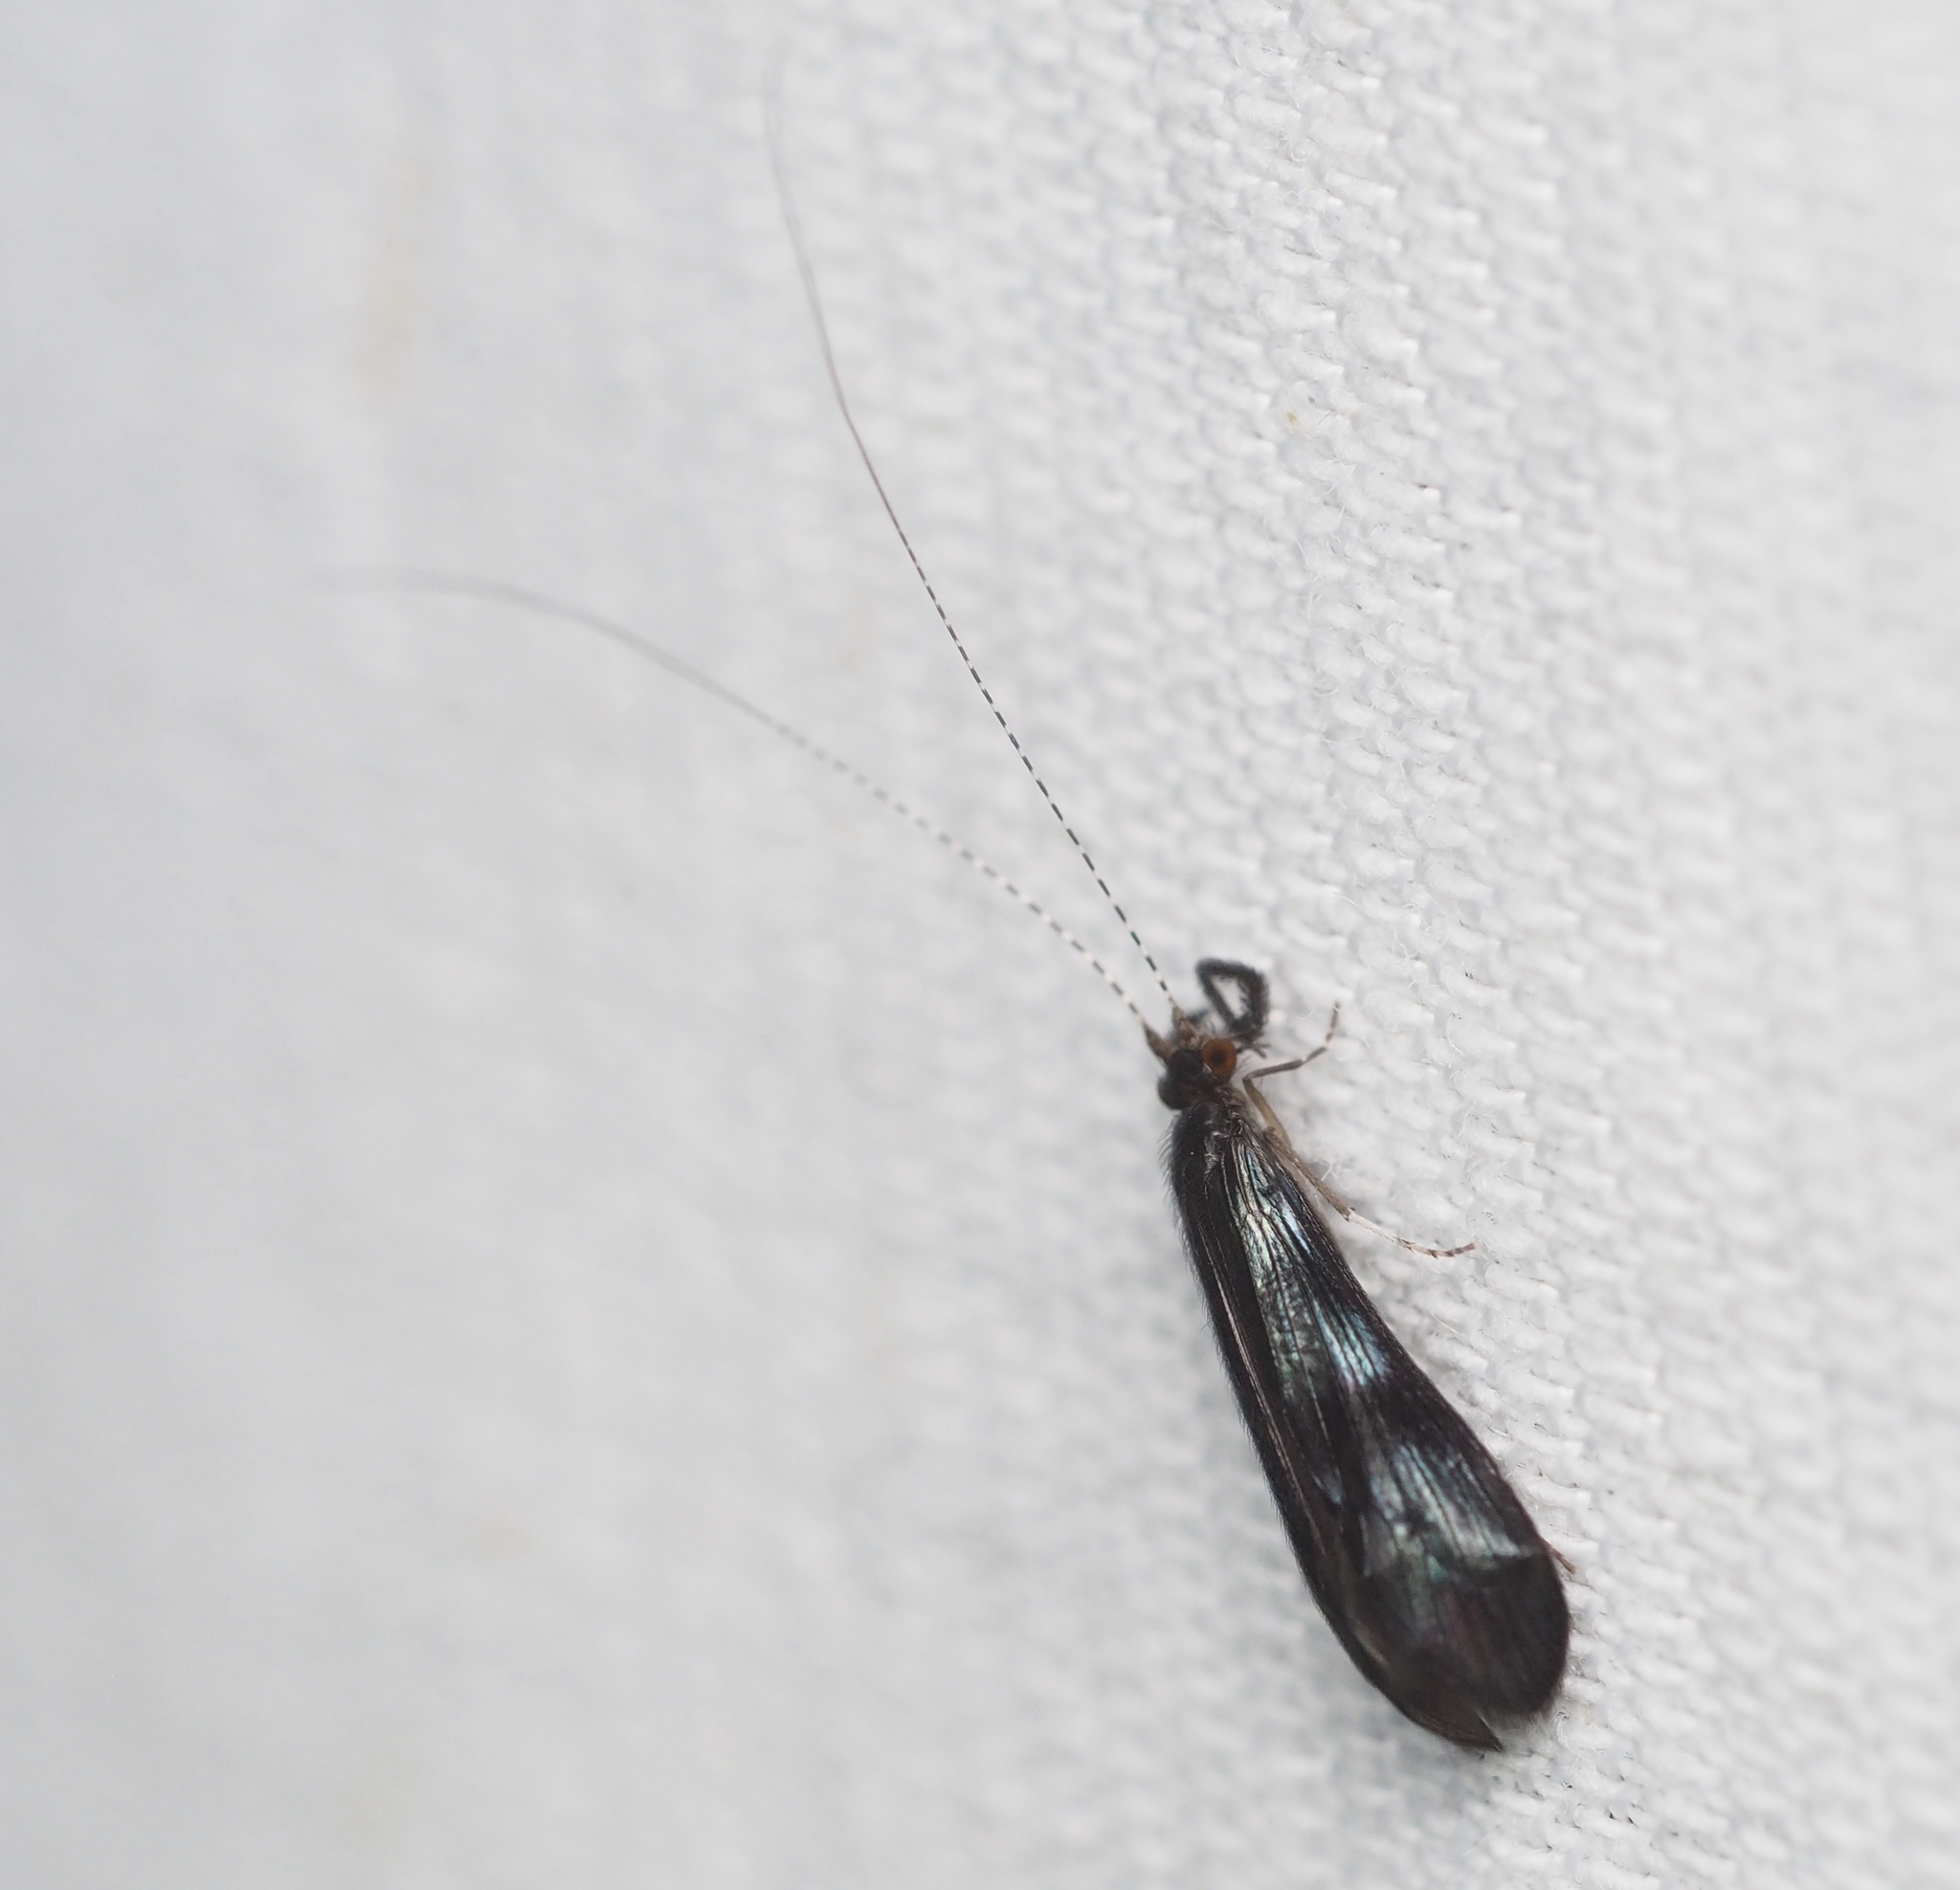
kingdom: Animalia
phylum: Arthropoda
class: Insecta
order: Trichoptera
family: Leptoceridae
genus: Mystacides
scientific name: Mystacides azureus
